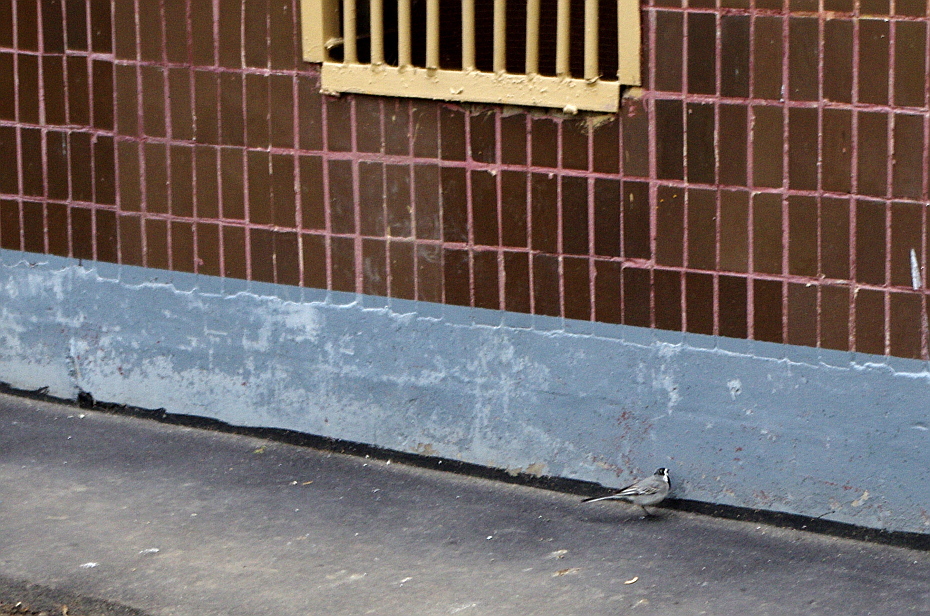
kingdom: Animalia
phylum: Chordata
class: Aves
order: Passeriformes
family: Motacillidae
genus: Motacilla
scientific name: Motacilla alba
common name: White wagtail
